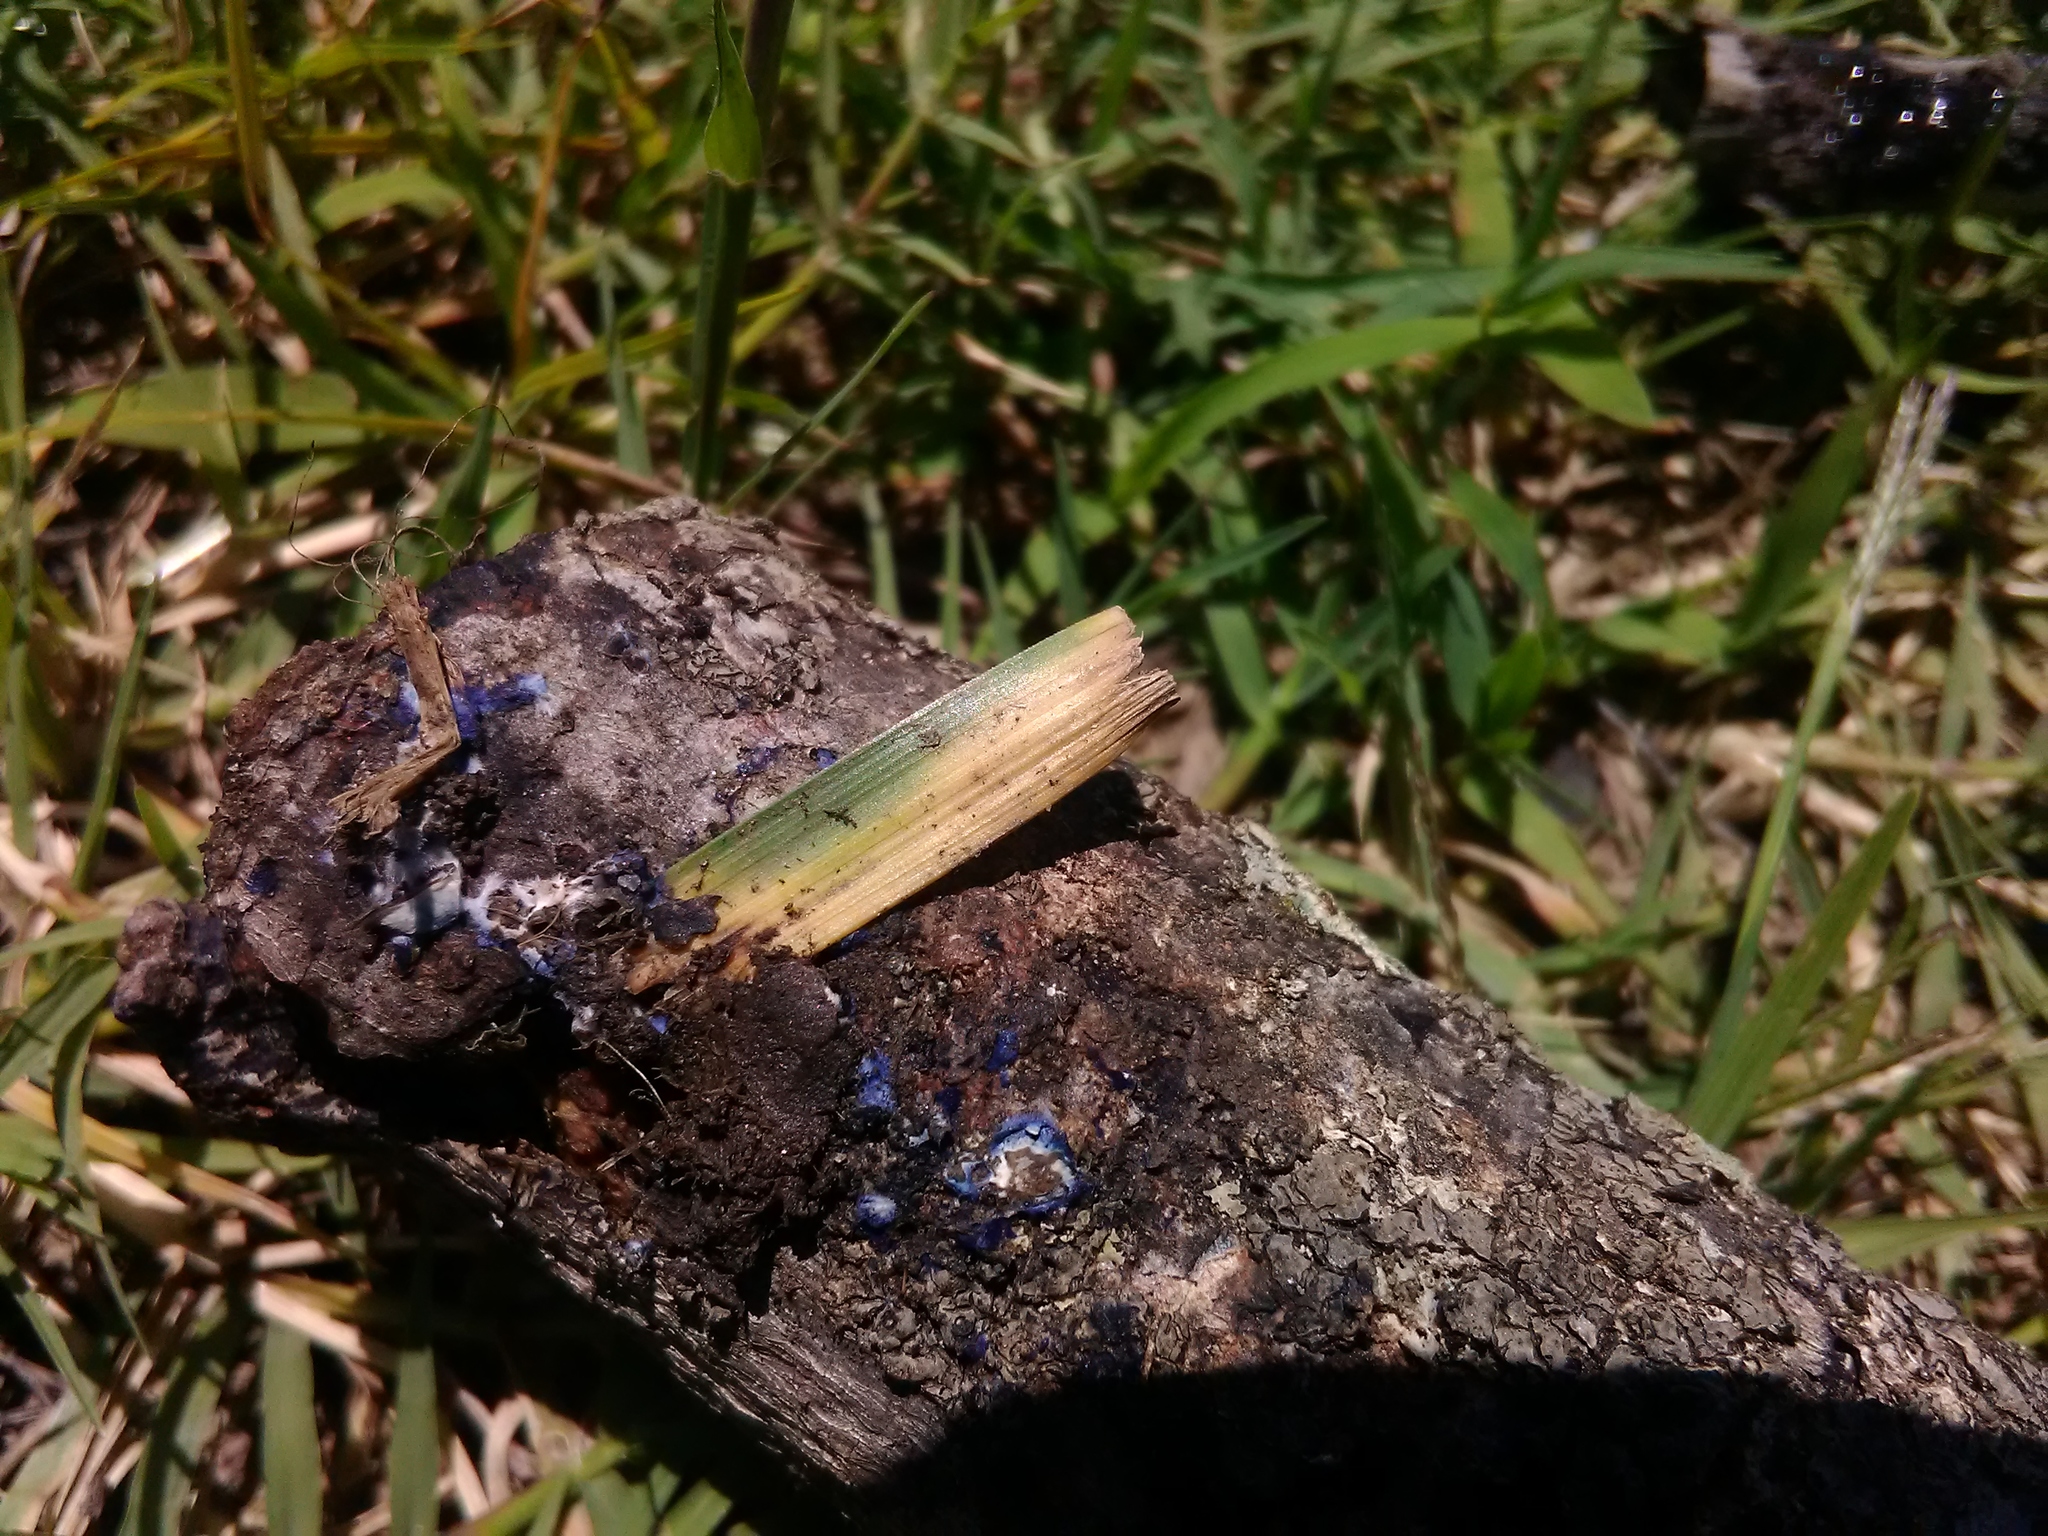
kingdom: Fungi
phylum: Basidiomycota
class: Agaricomycetes
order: Polyporales
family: Phanerochaetaceae
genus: Terana
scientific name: Terana coerulea
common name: Cobalt crust
